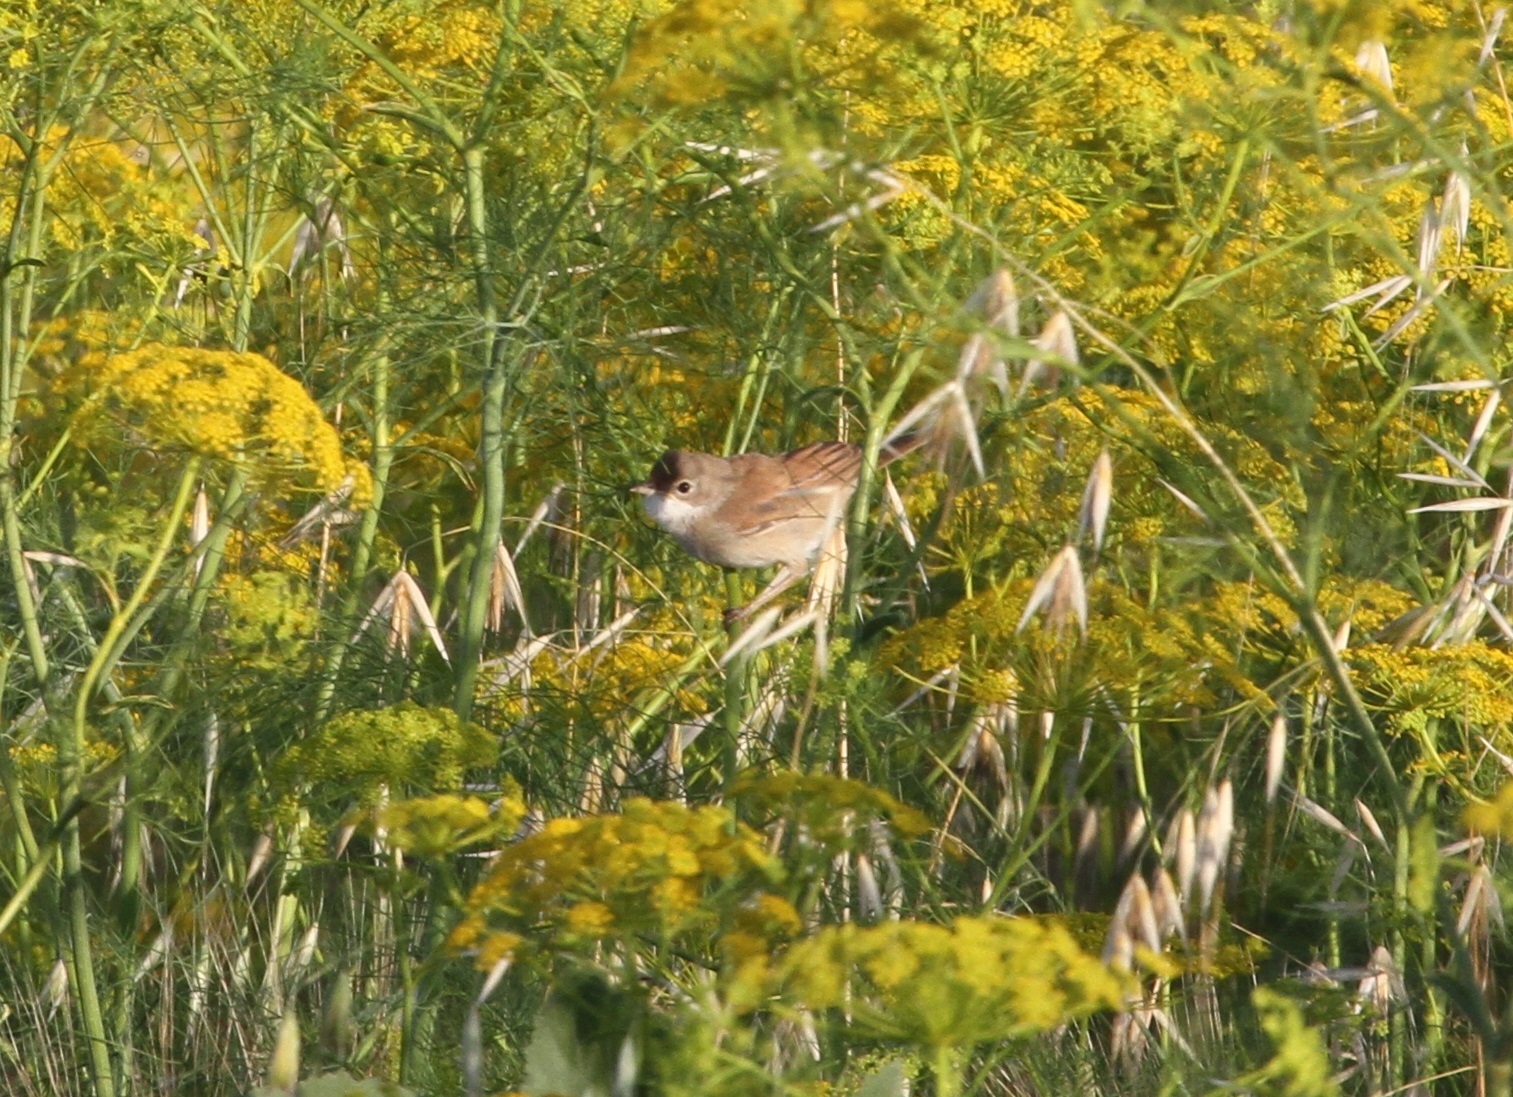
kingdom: Animalia
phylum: Chordata
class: Aves
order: Passeriformes
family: Sylviidae
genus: Sylvia
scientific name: Sylvia communis
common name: Common whitethroat
